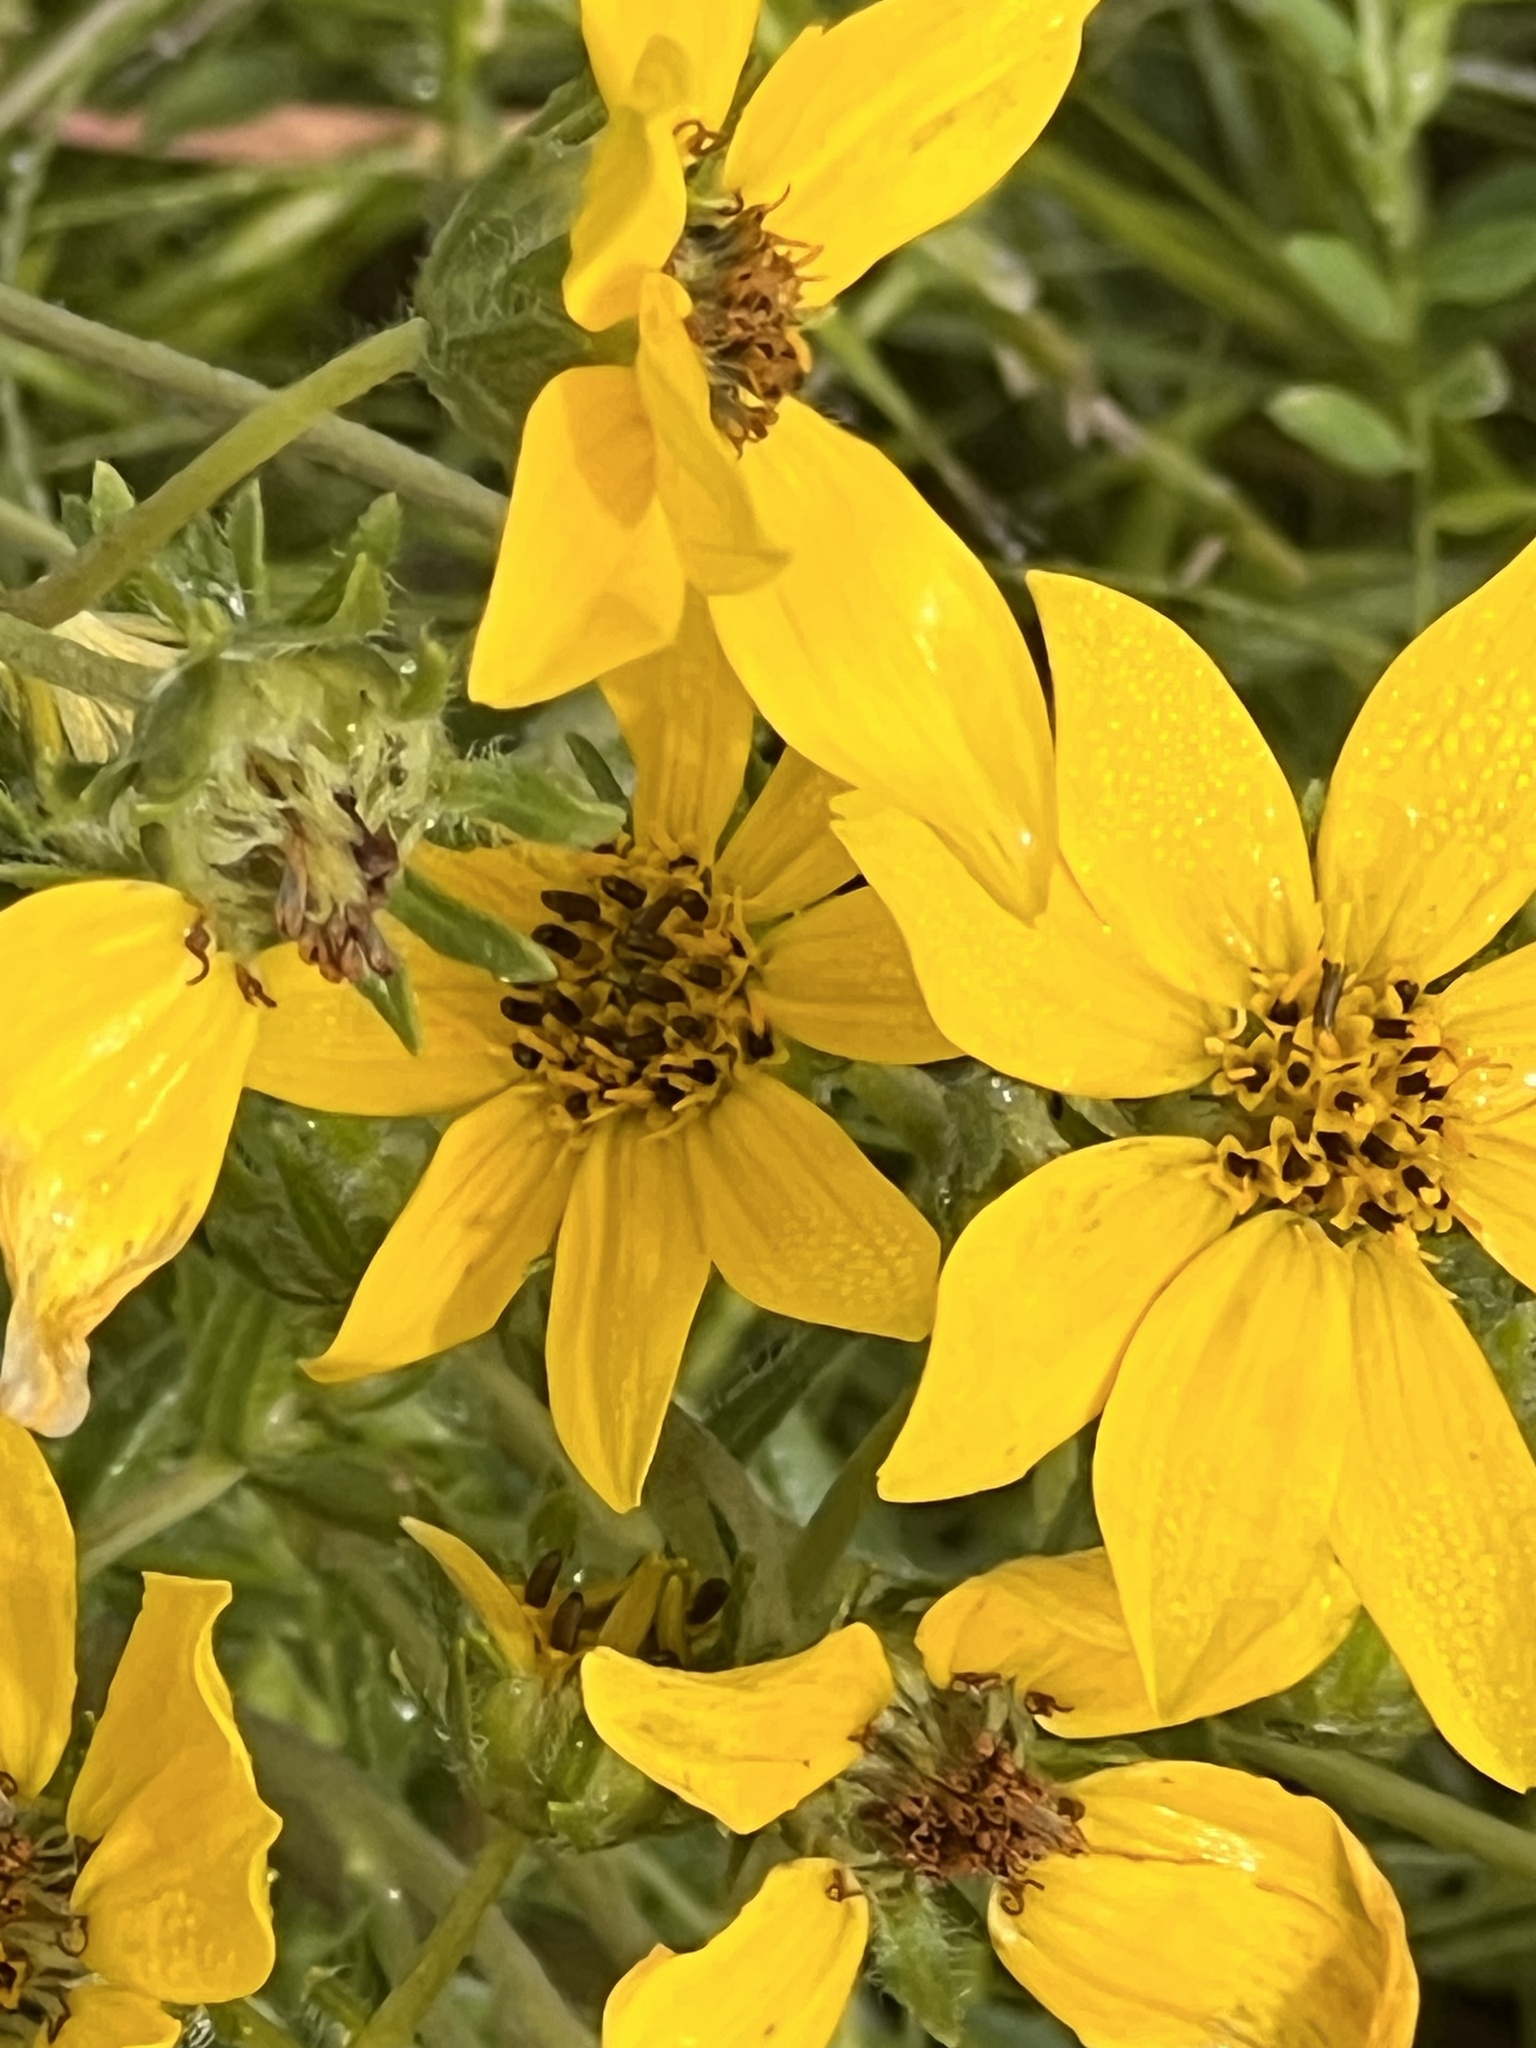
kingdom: Plantae
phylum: Tracheophyta
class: Magnoliopsida
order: Asterales
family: Asteraceae
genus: Engelmannia
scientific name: Engelmannia peristenia
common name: Engelmann's daisy
